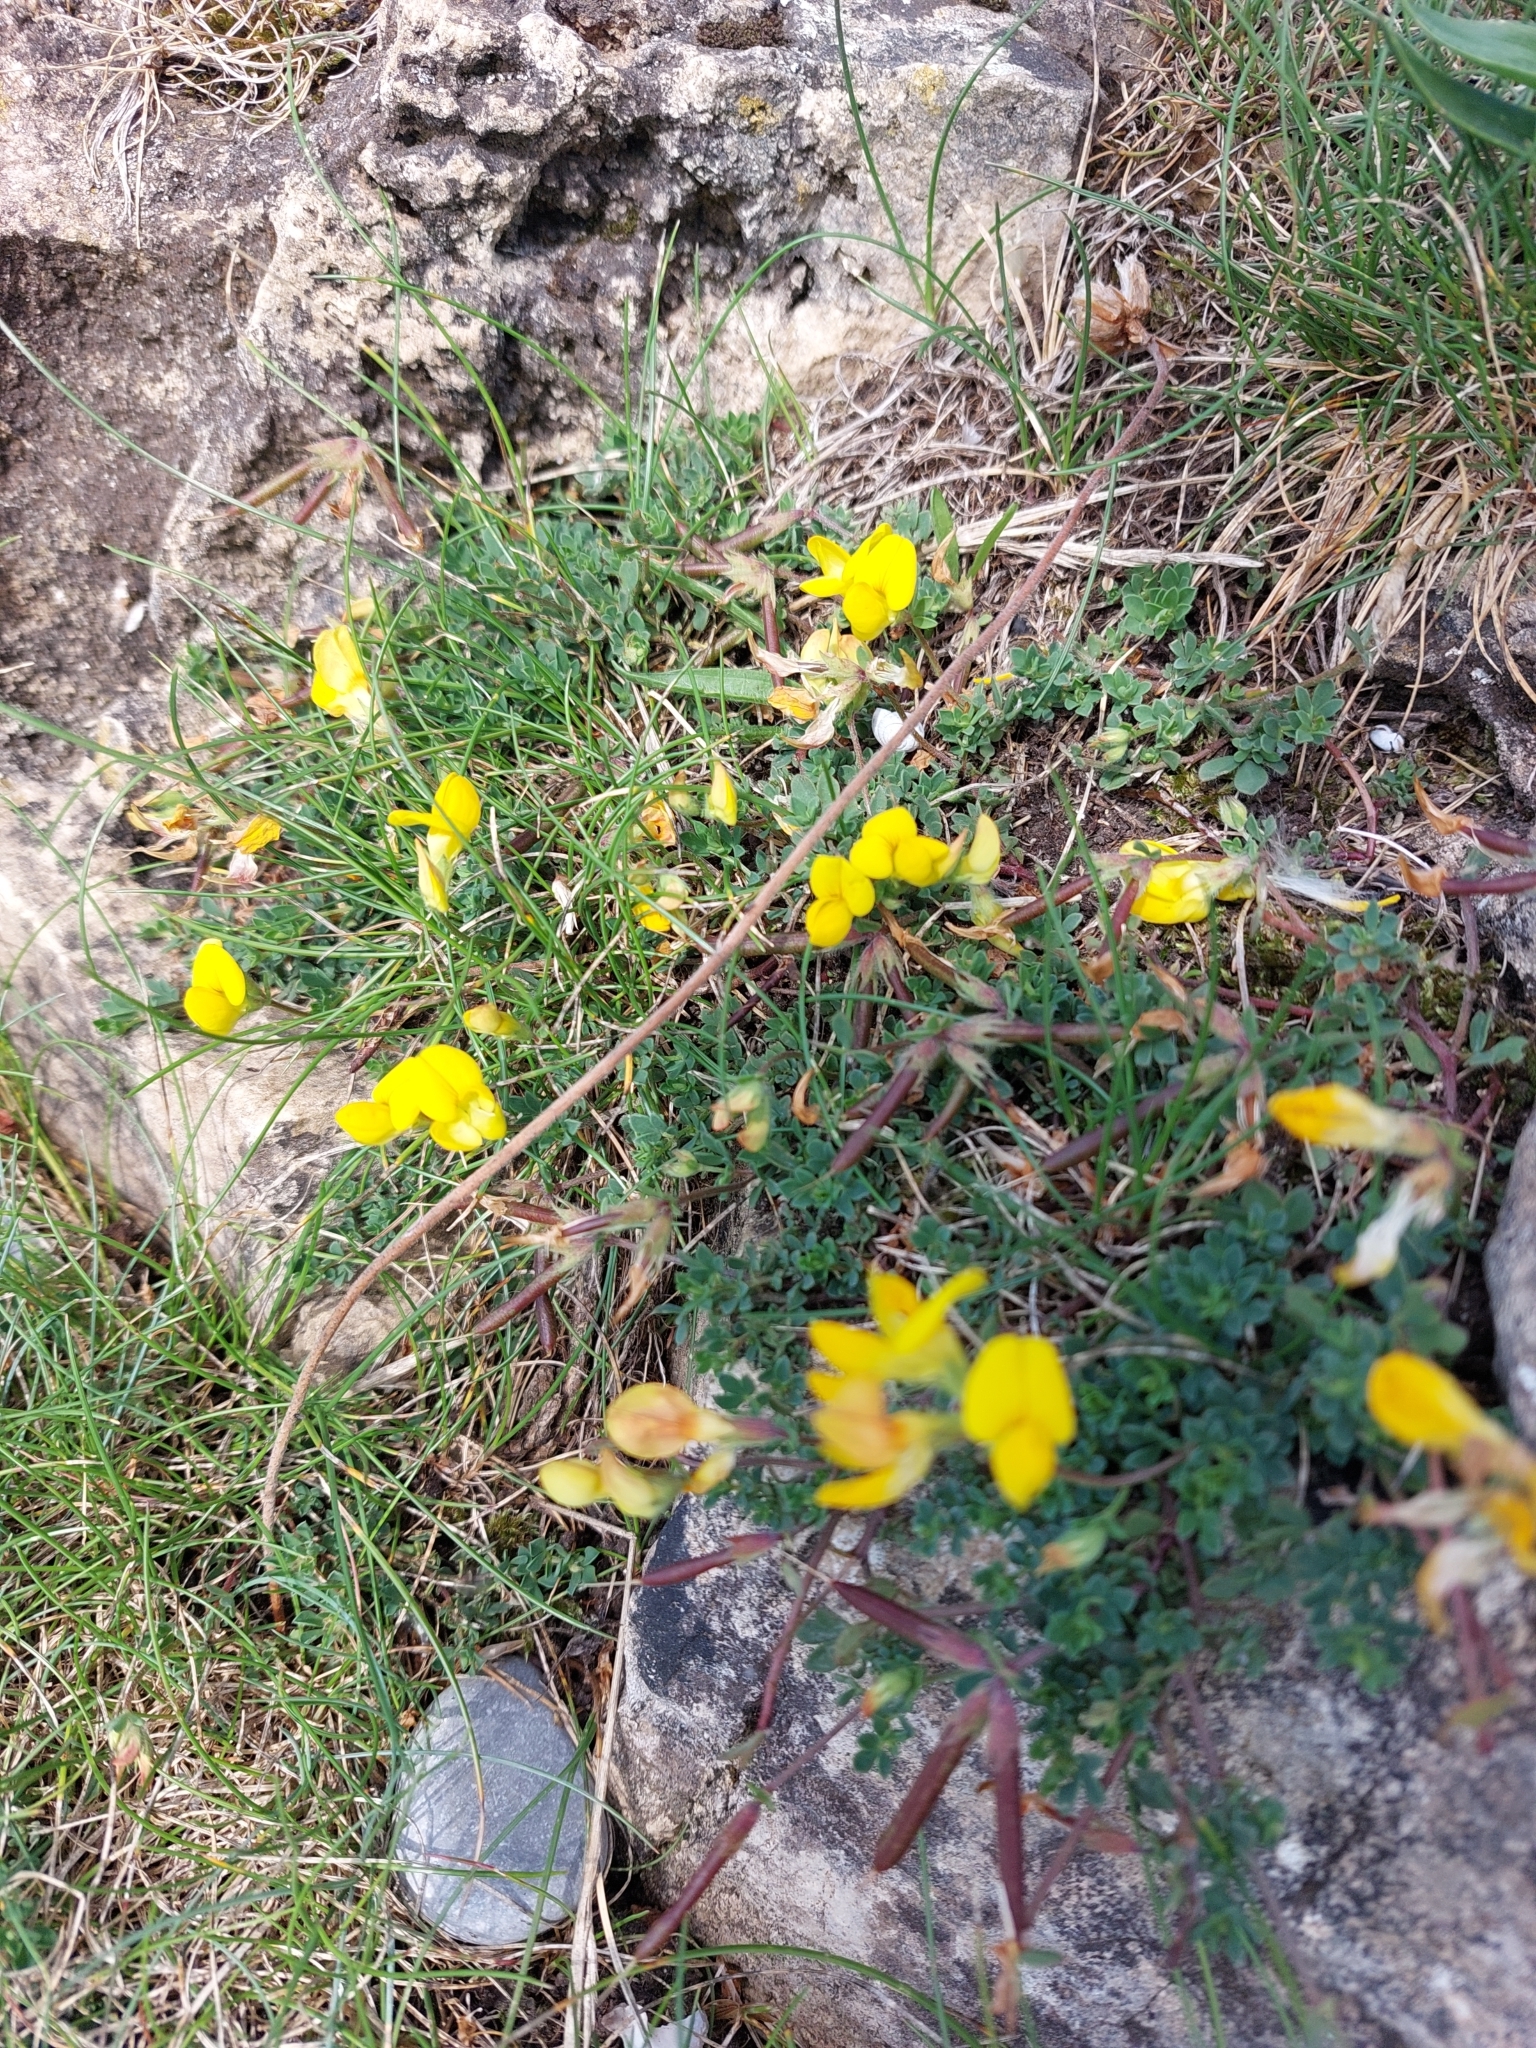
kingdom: Plantae
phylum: Tracheophyta
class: Magnoliopsida
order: Fabales
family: Fabaceae
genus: Lotus
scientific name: Lotus corniculatus
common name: Common bird's-foot-trefoil
